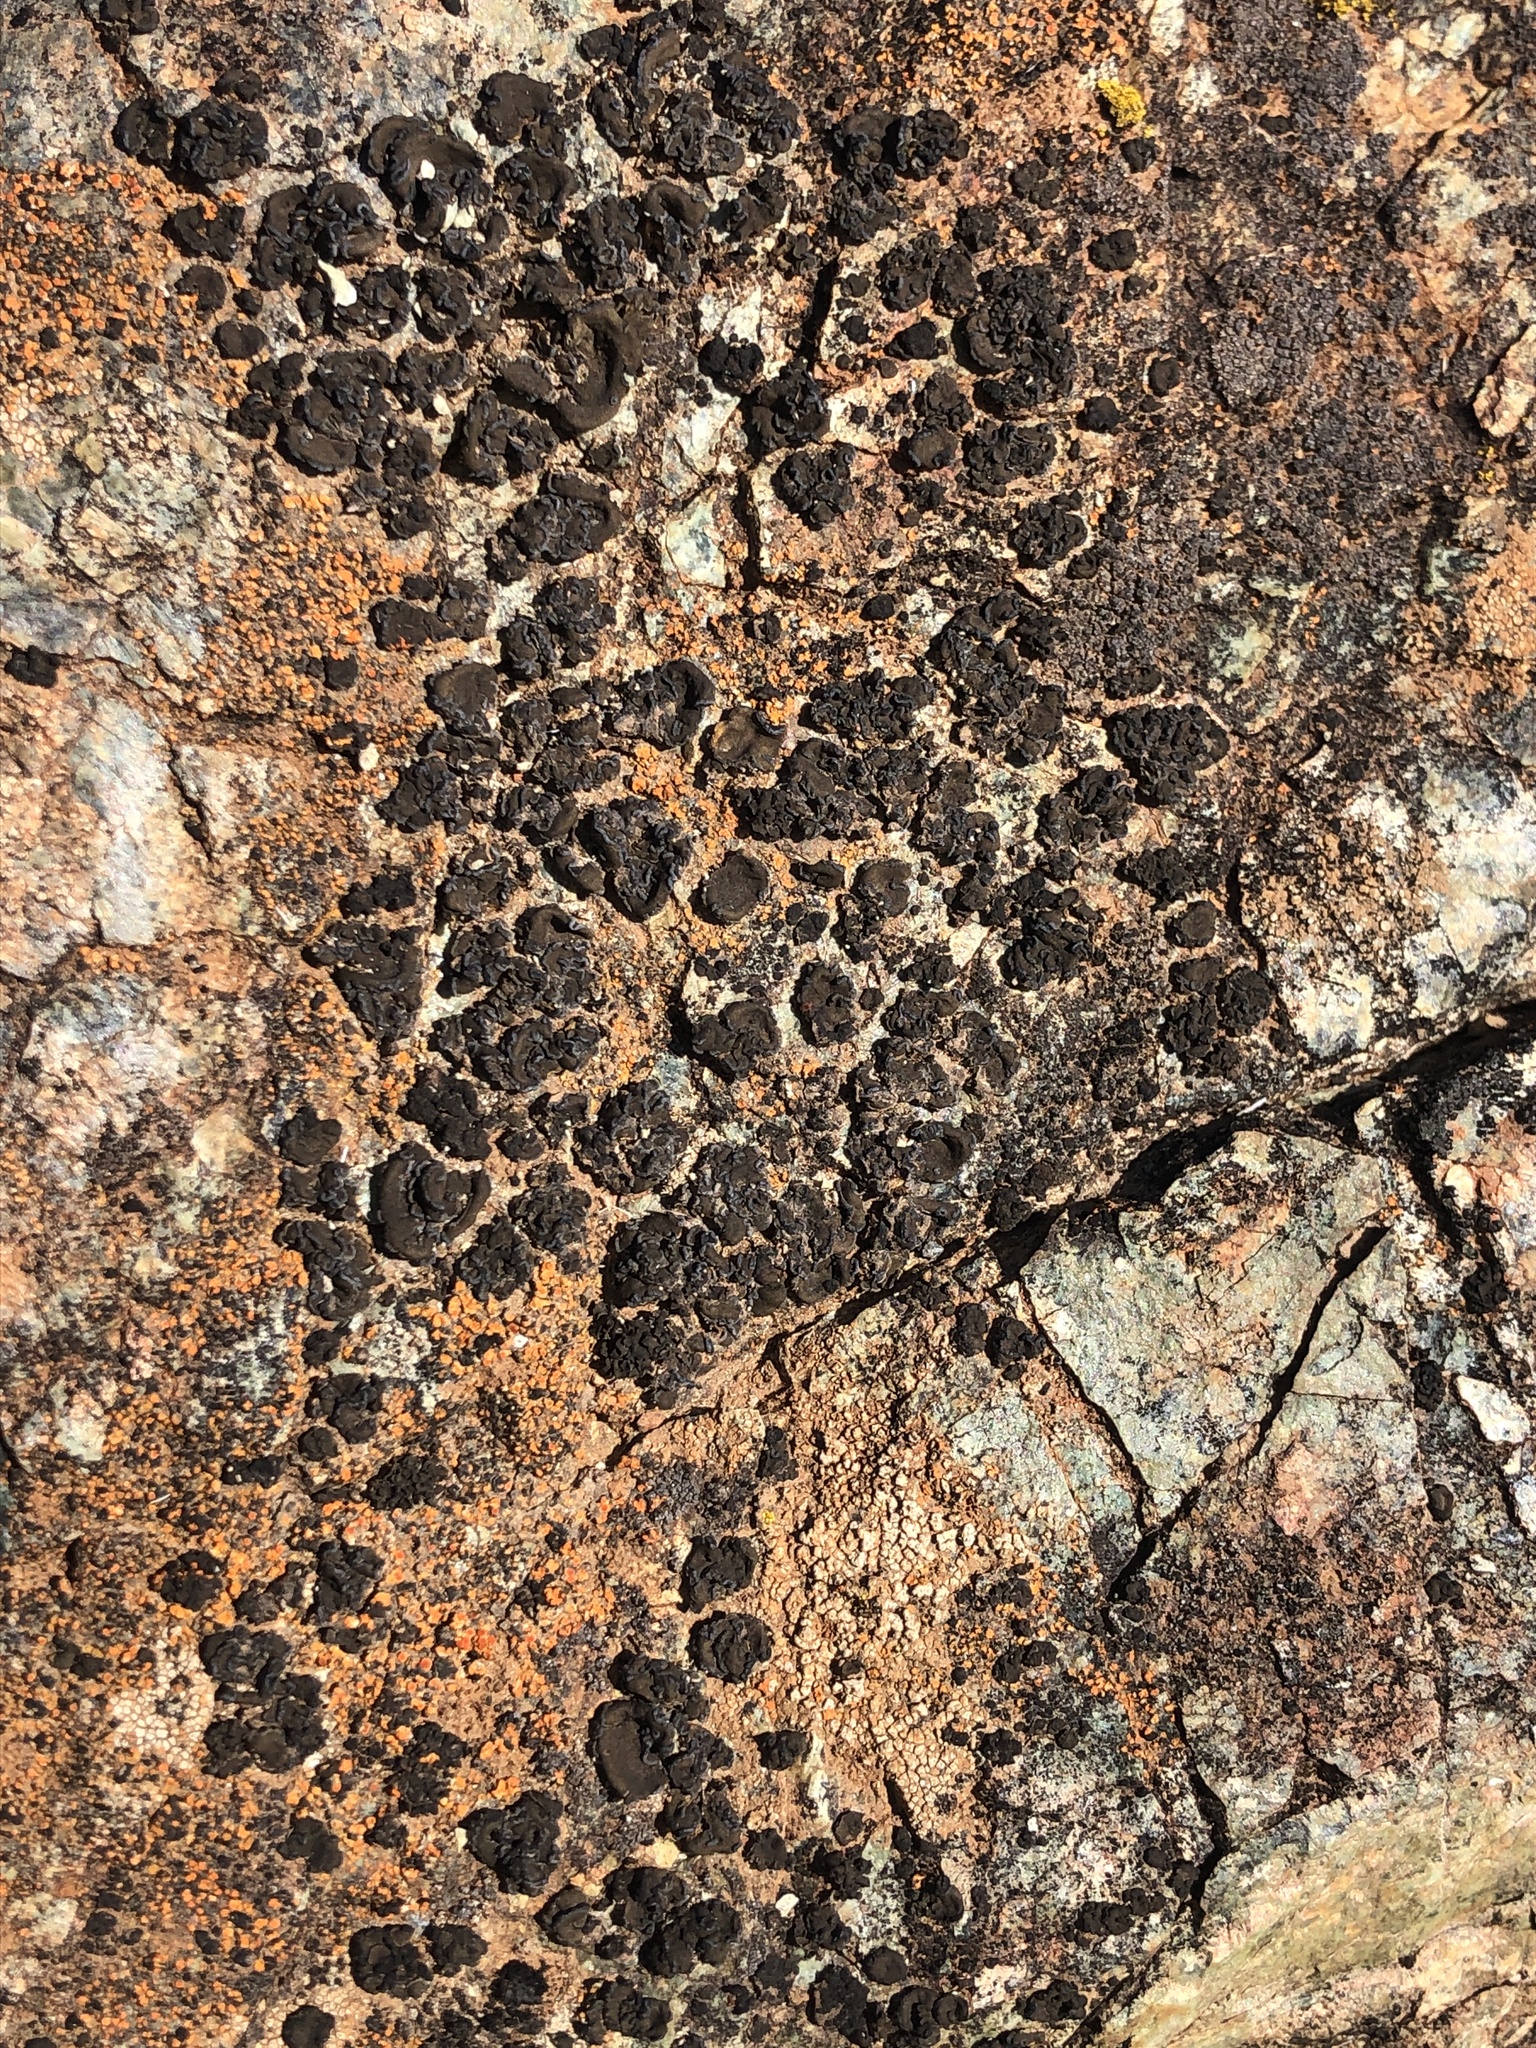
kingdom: Fungi
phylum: Ascomycota
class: Lichinomycetes
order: Lichinales
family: Peltulaceae
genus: Peltula
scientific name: Peltula euploca
